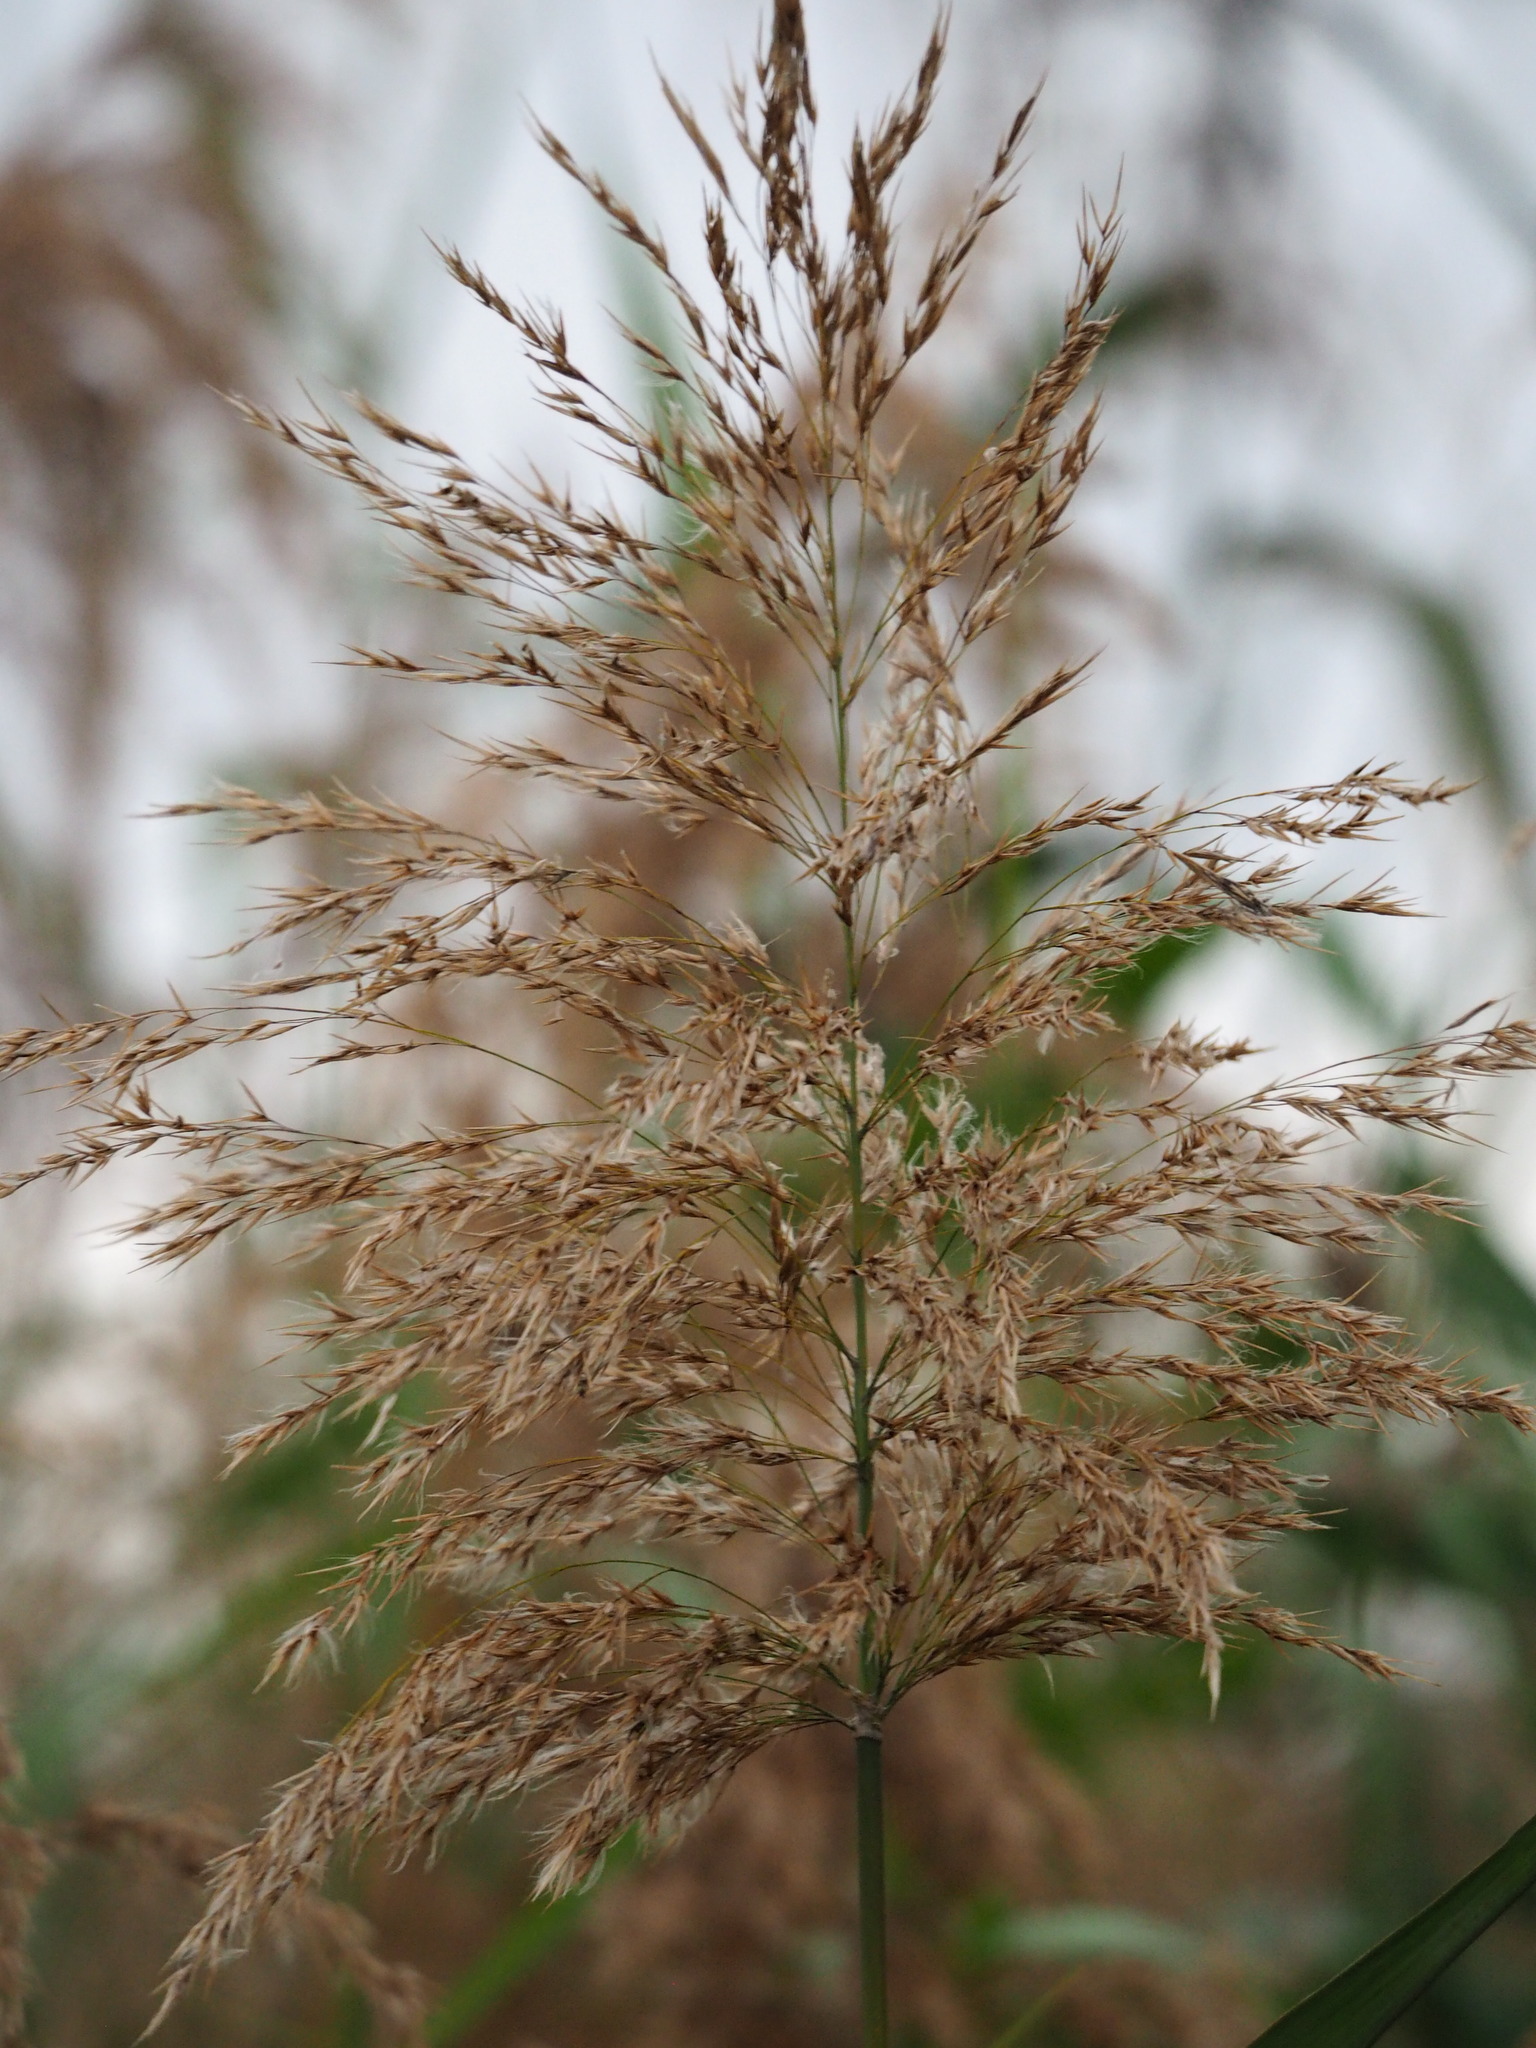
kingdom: Plantae
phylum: Tracheophyta
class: Liliopsida
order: Poales
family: Poaceae
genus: Phragmites
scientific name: Phragmites australis
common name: Common reed
